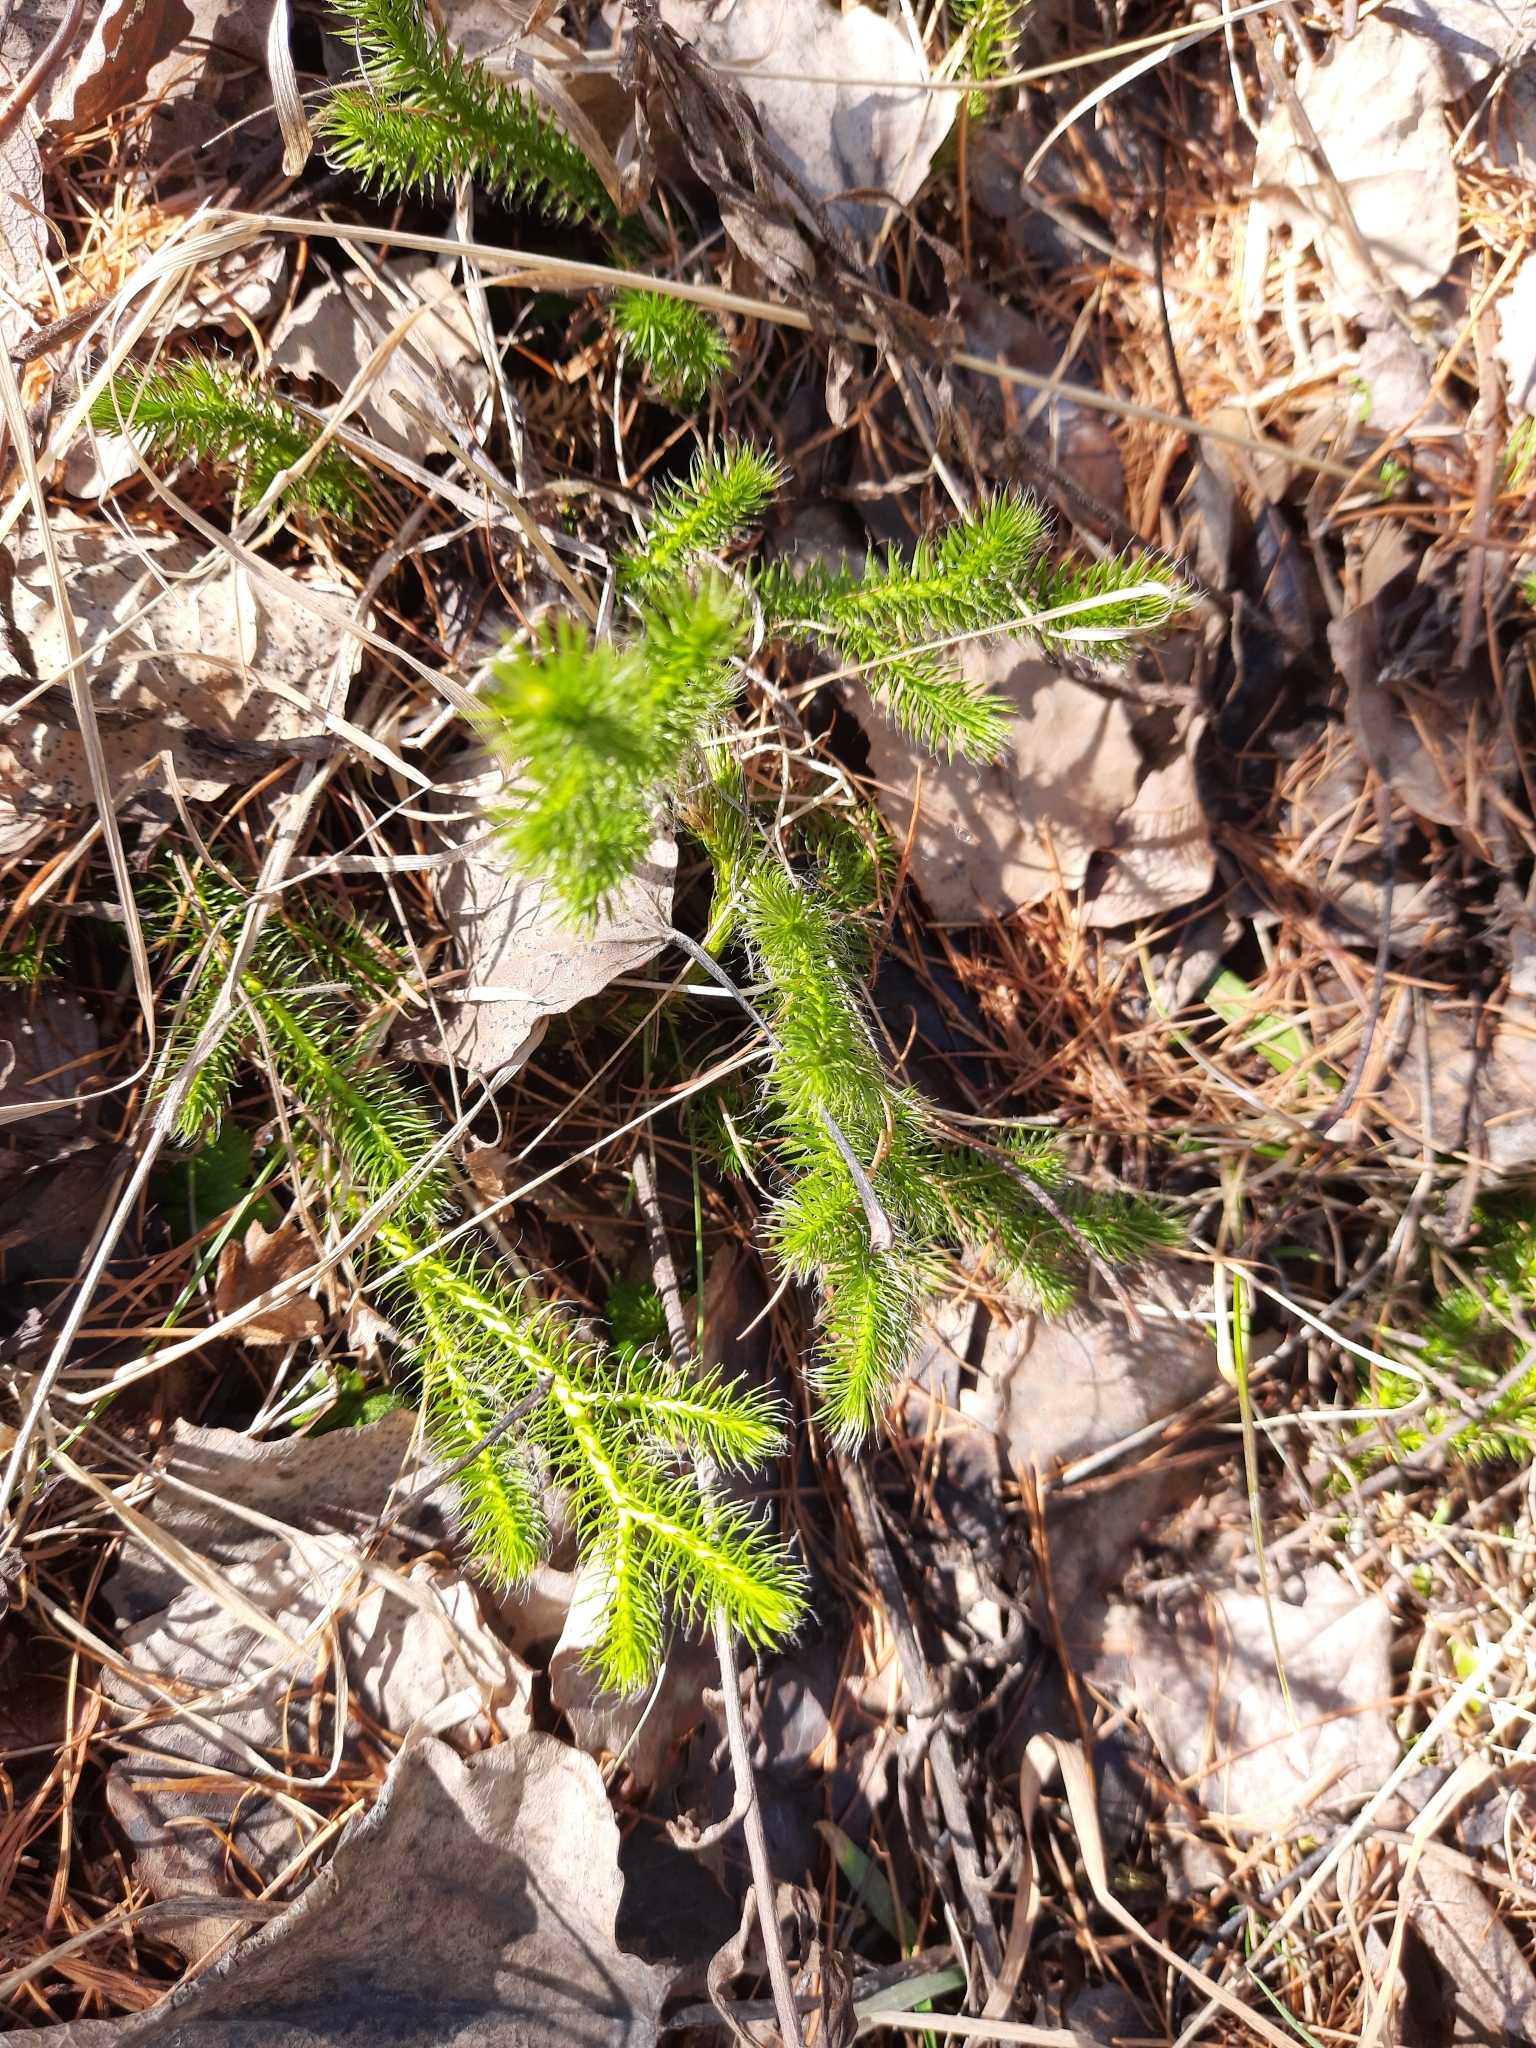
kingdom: Plantae
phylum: Tracheophyta
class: Lycopodiopsida
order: Lycopodiales
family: Lycopodiaceae
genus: Lycopodium
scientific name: Lycopodium clavatum
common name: Stag's-horn clubmoss
